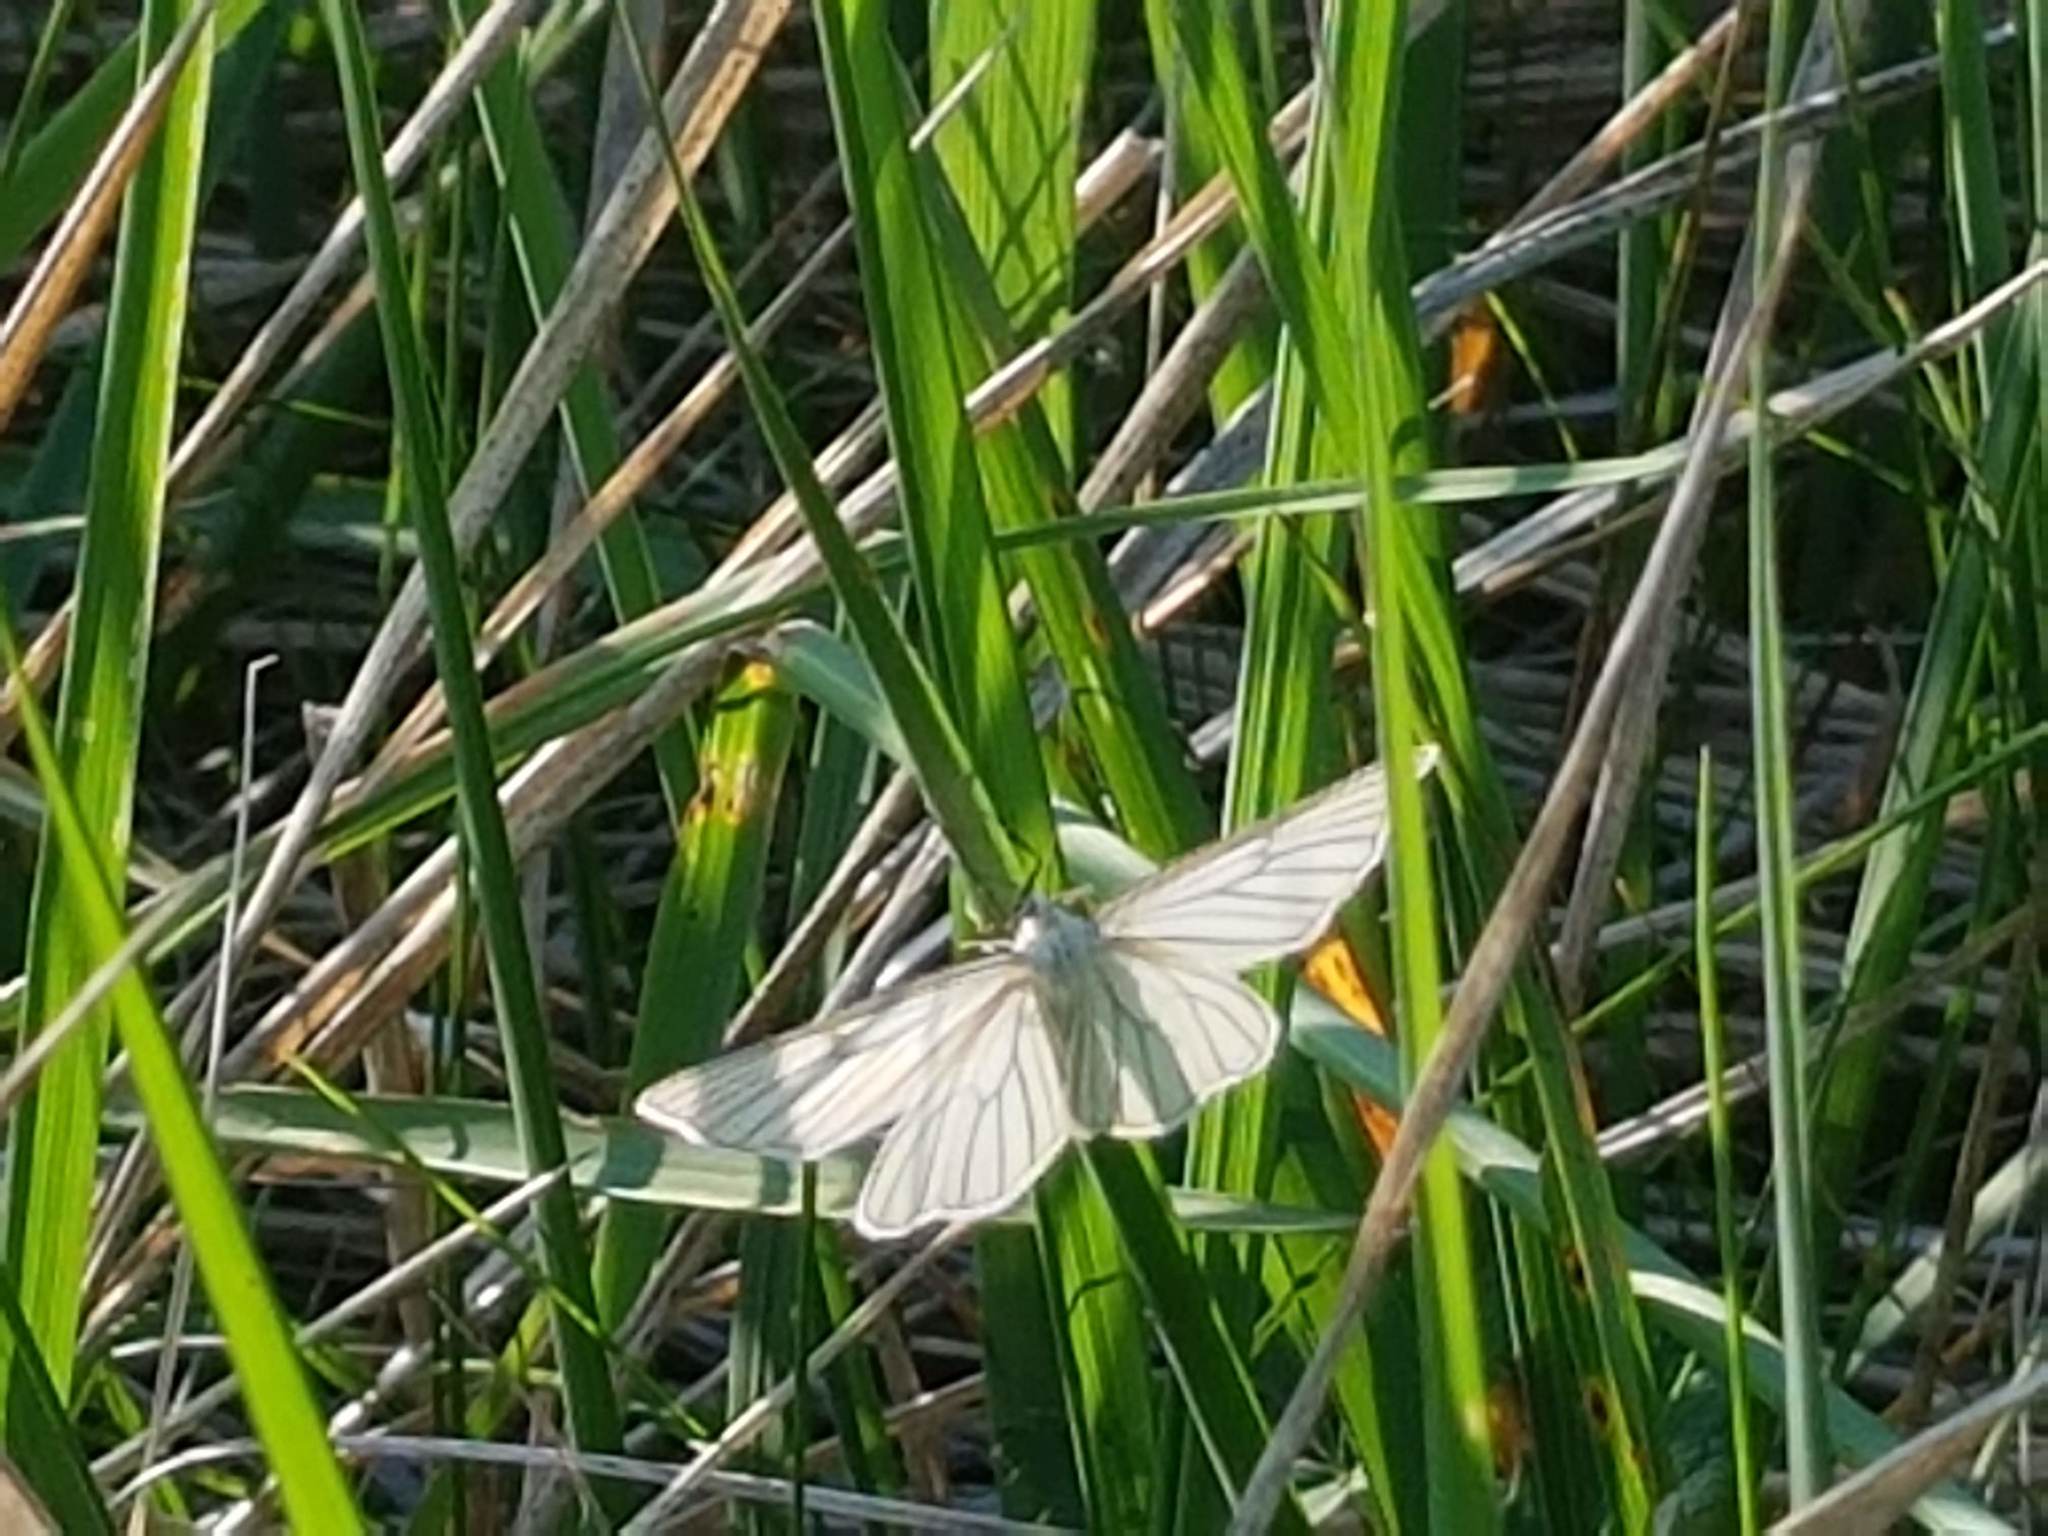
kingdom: Animalia
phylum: Arthropoda
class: Insecta
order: Lepidoptera
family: Geometridae
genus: Siona
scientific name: Siona lineata
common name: Black-veined moth
